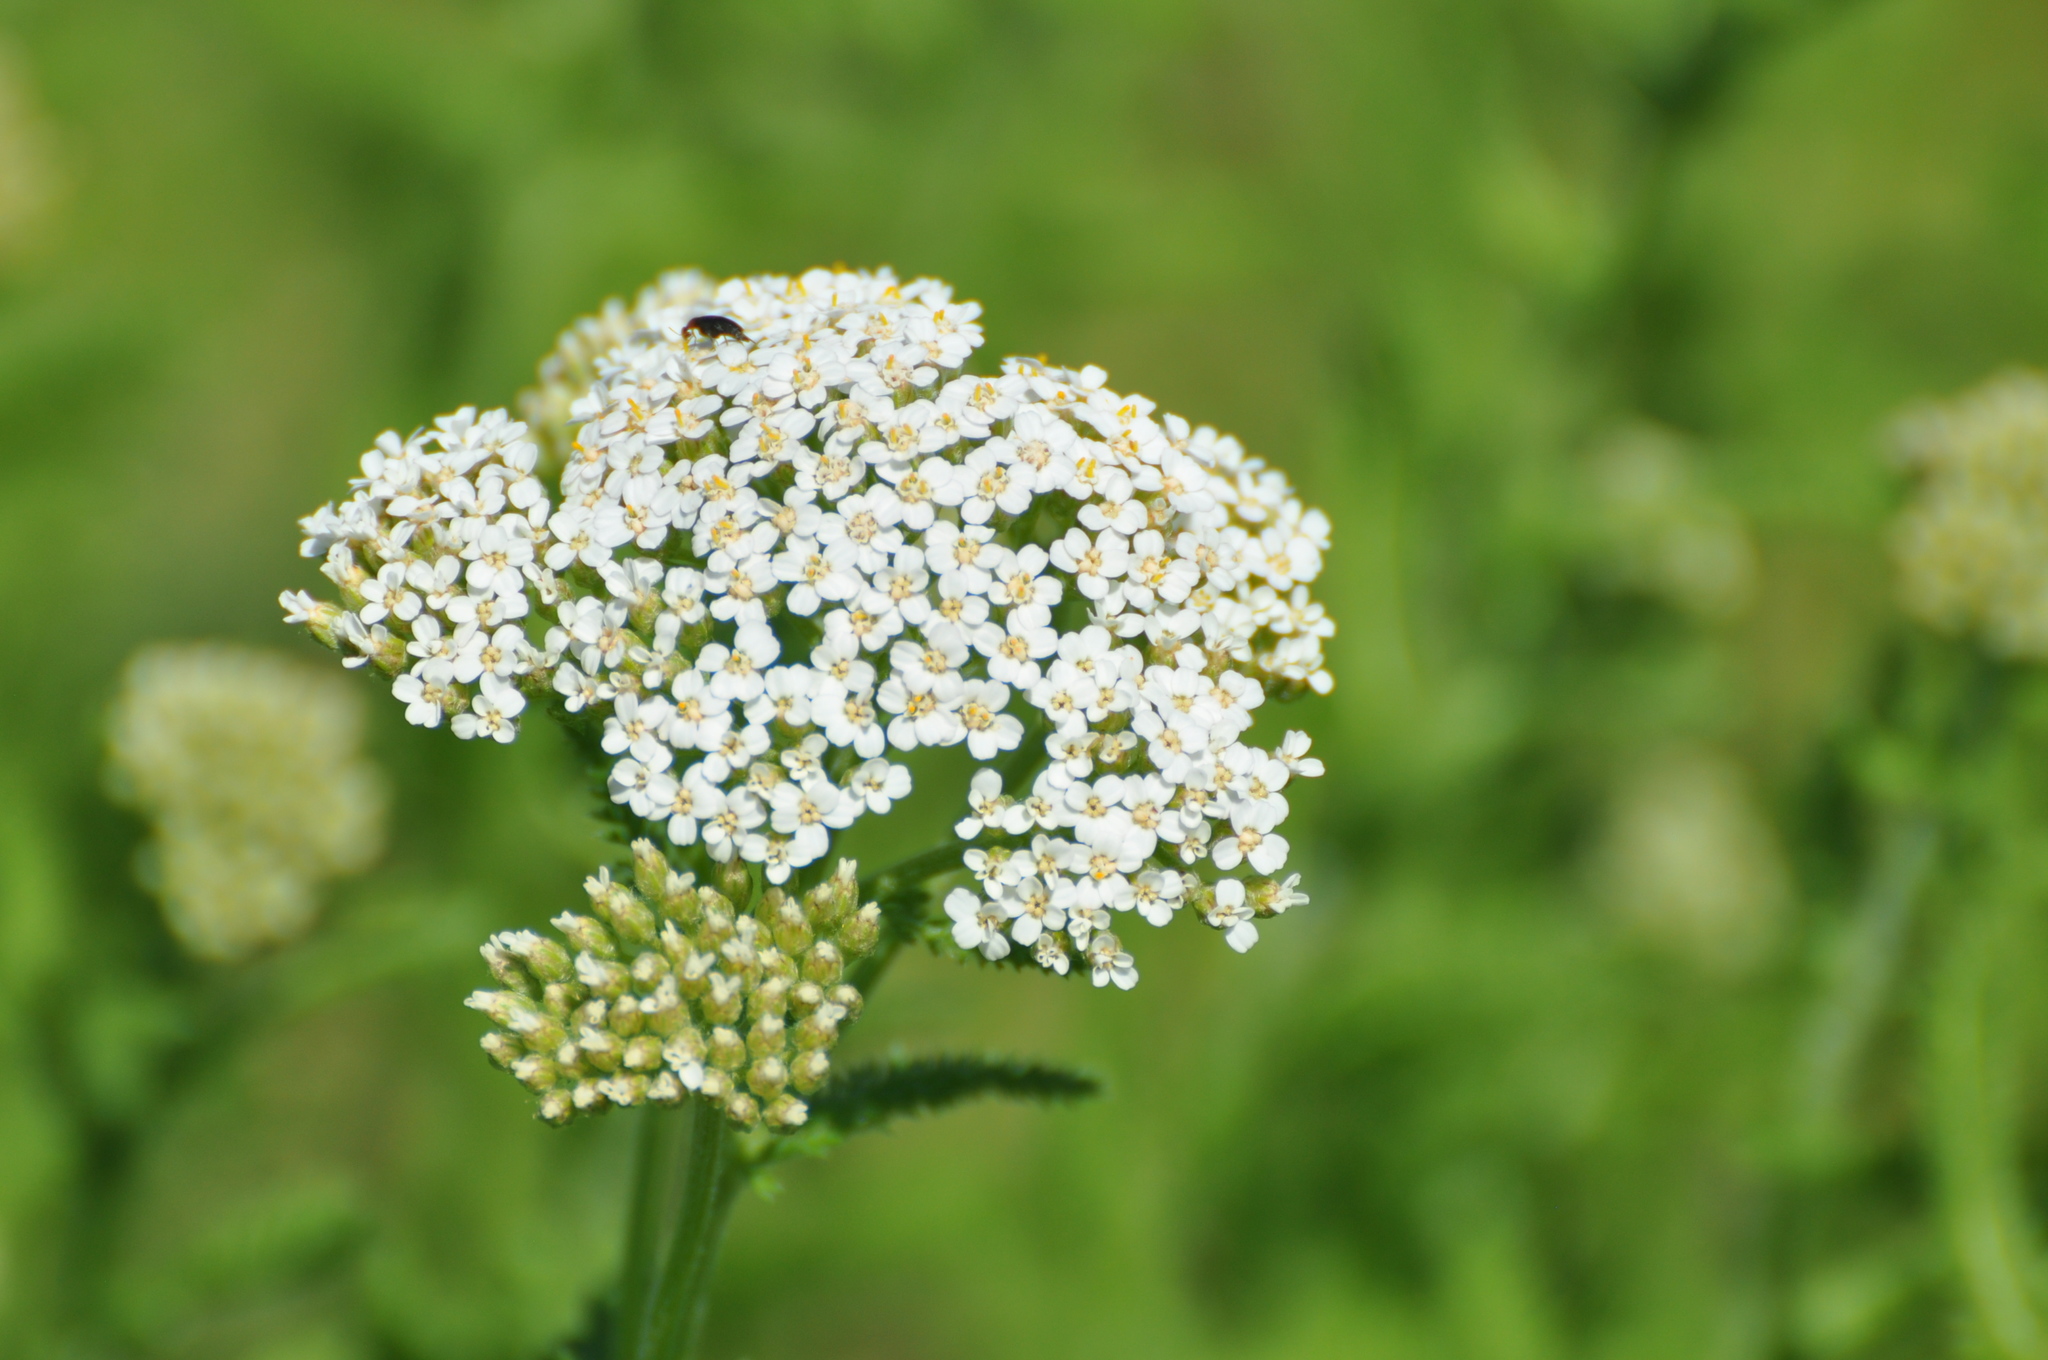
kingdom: Plantae
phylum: Tracheophyta
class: Magnoliopsida
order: Asterales
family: Asteraceae
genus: Achillea
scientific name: Achillea millefolium
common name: Yarrow
